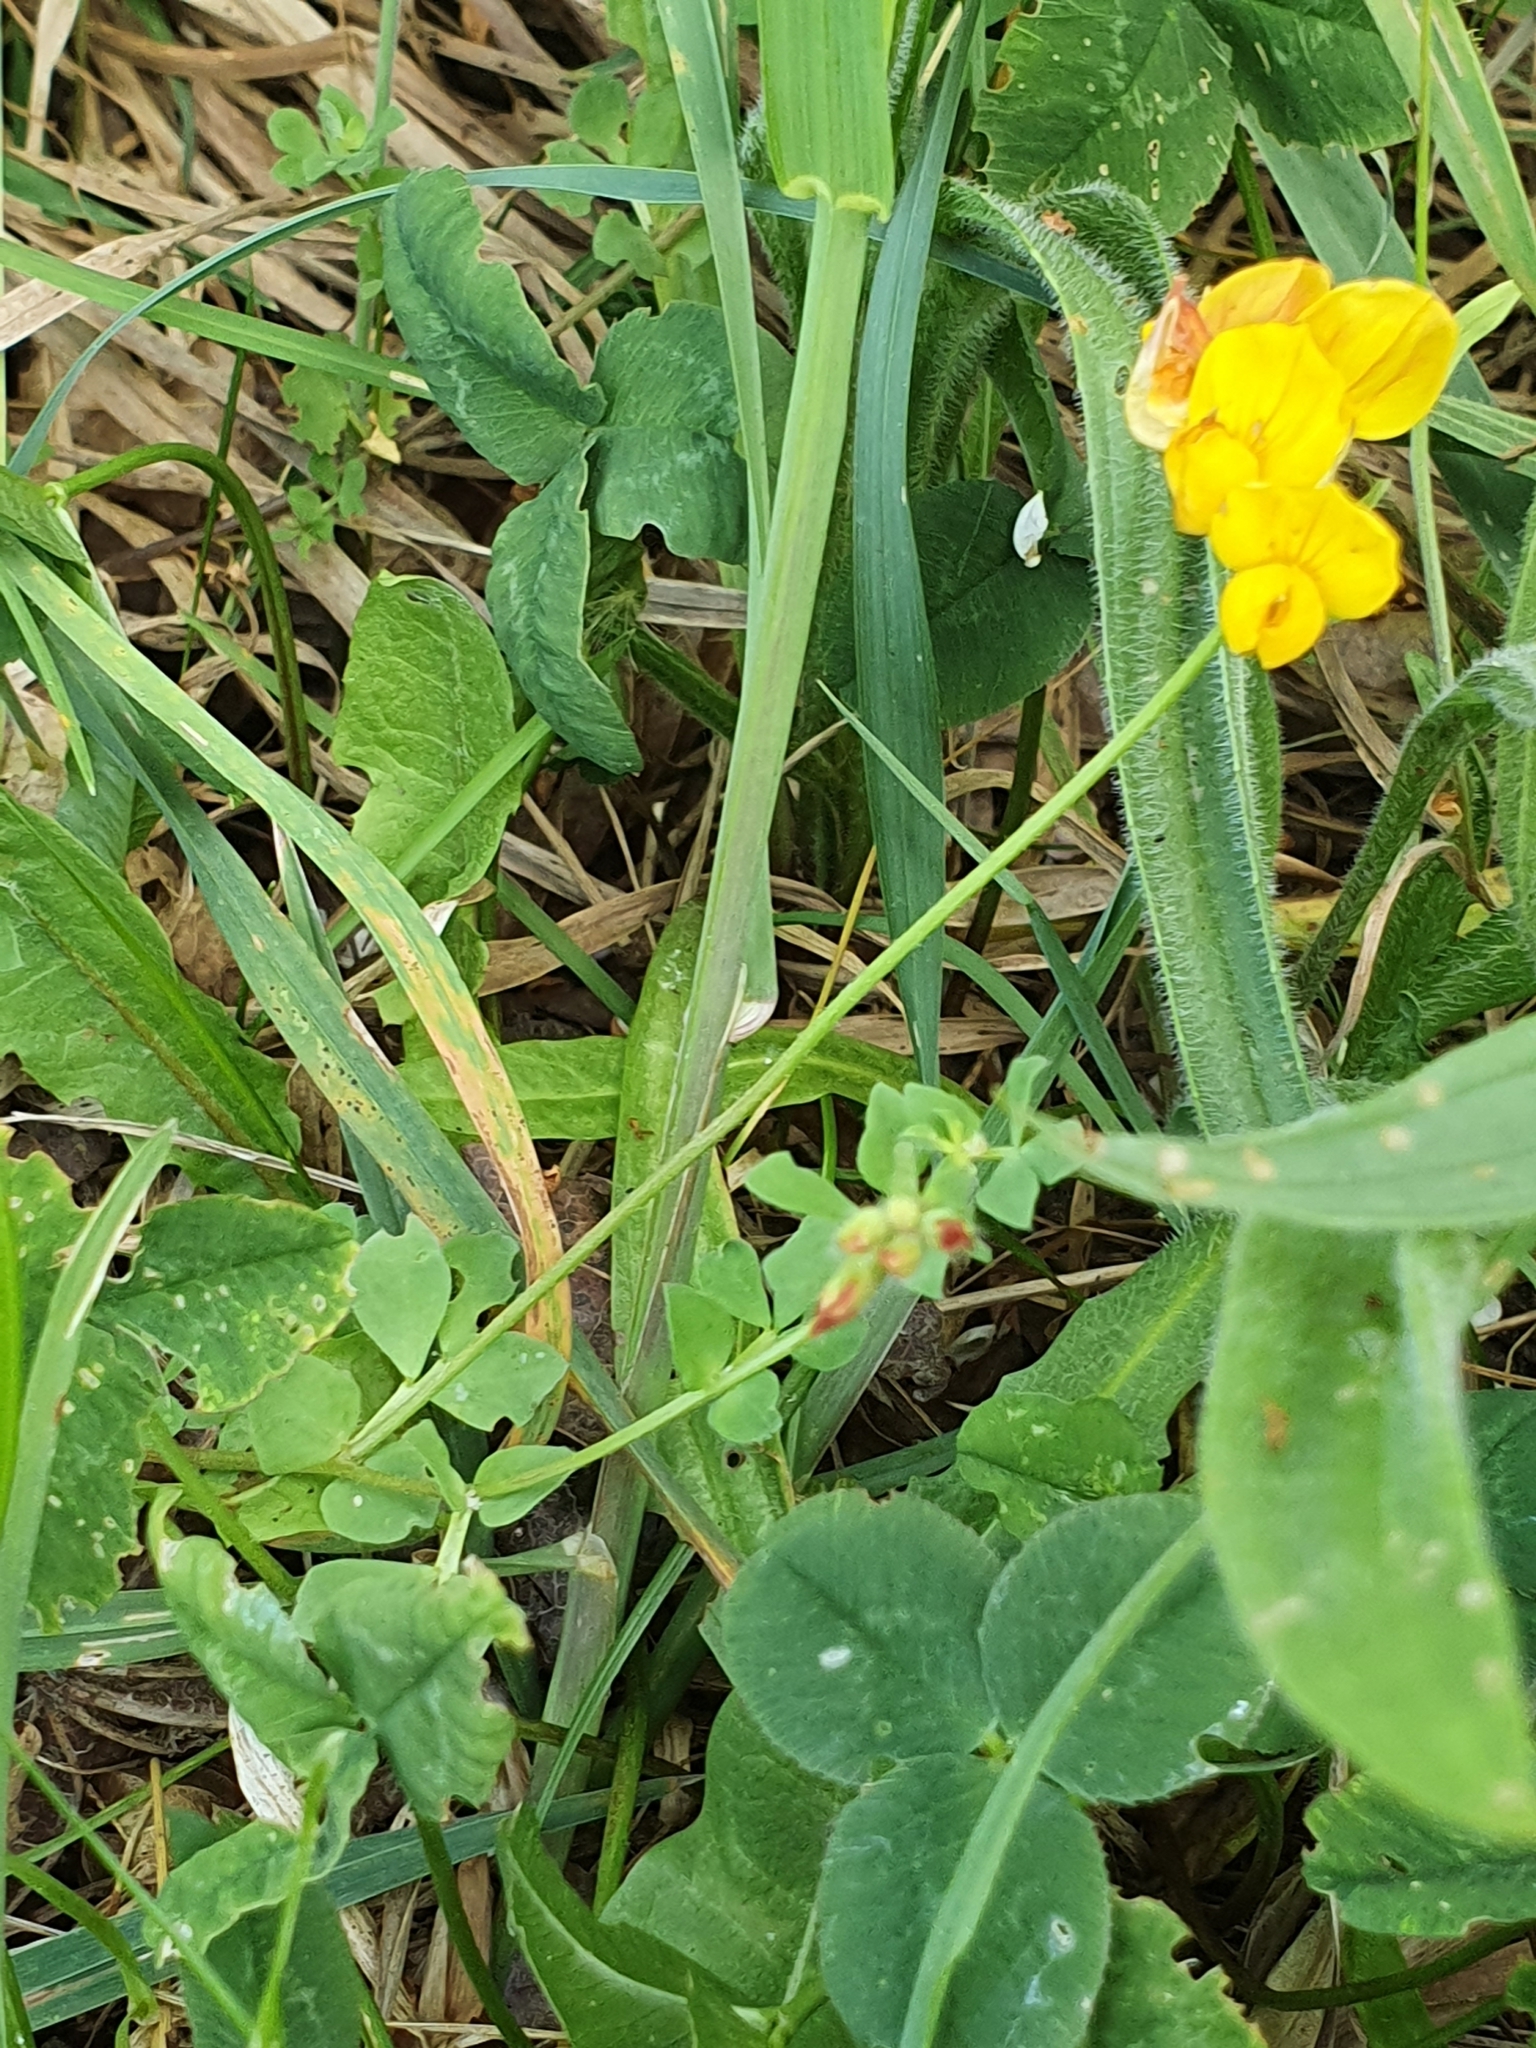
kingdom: Plantae
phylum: Tracheophyta
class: Magnoliopsida
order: Fabales
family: Fabaceae
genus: Lotus
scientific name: Lotus corniculatus
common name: Common bird's-foot-trefoil
